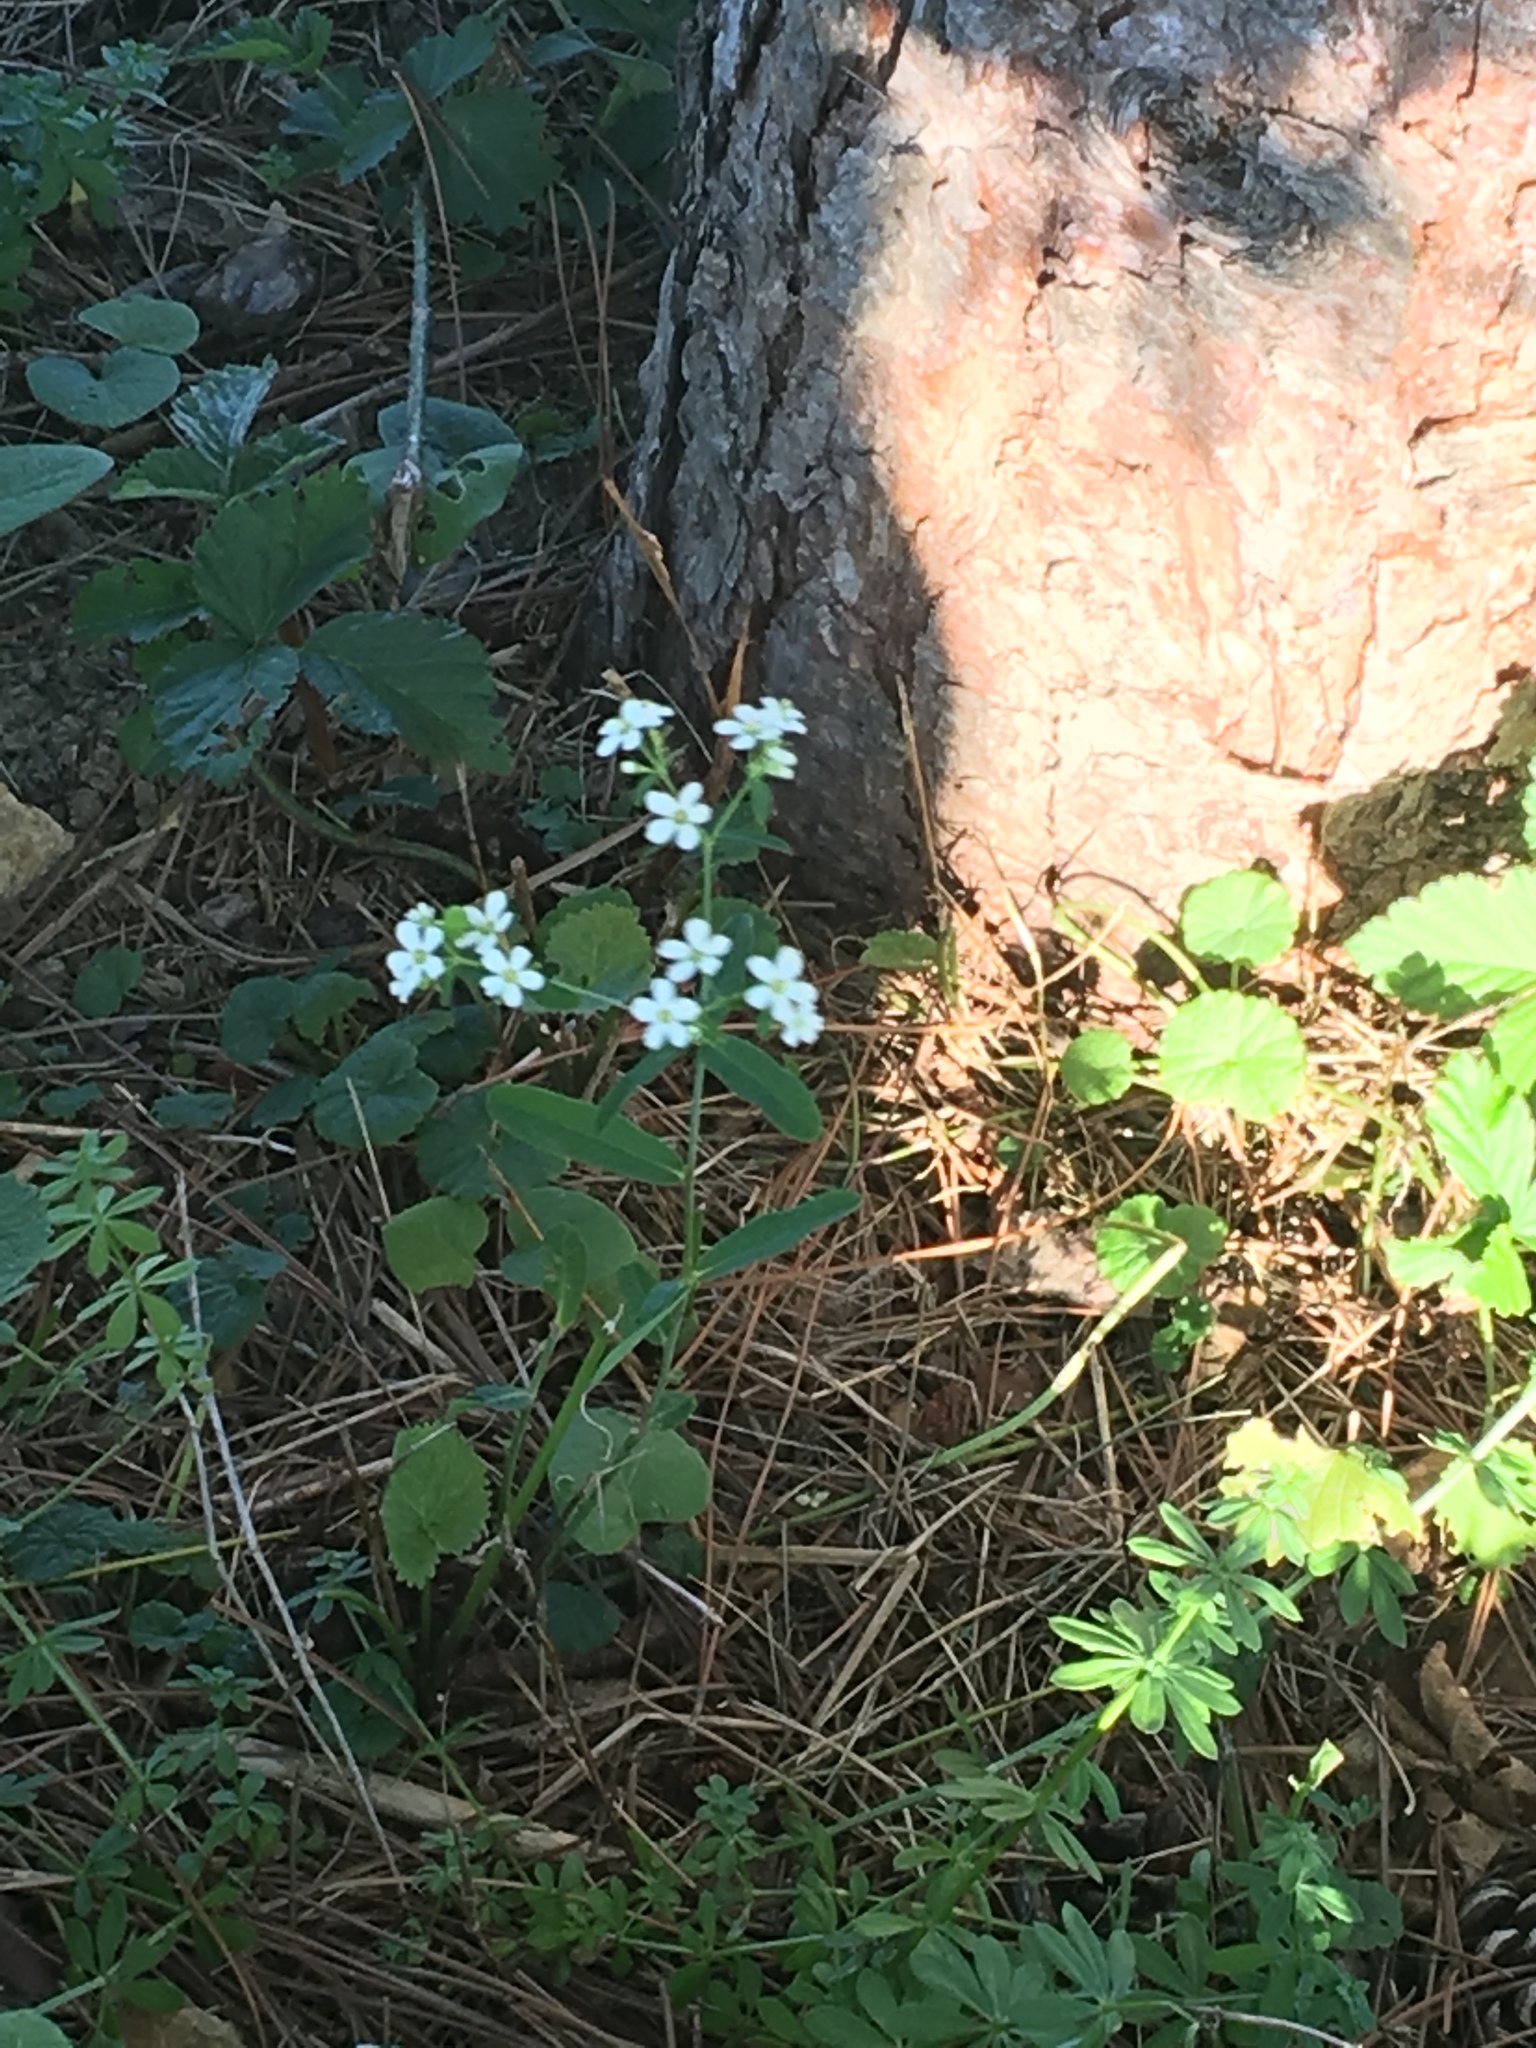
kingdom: Plantae
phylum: Tracheophyta
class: Magnoliopsida
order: Malpighiales
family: Euphorbiaceae
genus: Euphorbia
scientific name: Euphorbia corollata
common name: Flowering spurge
